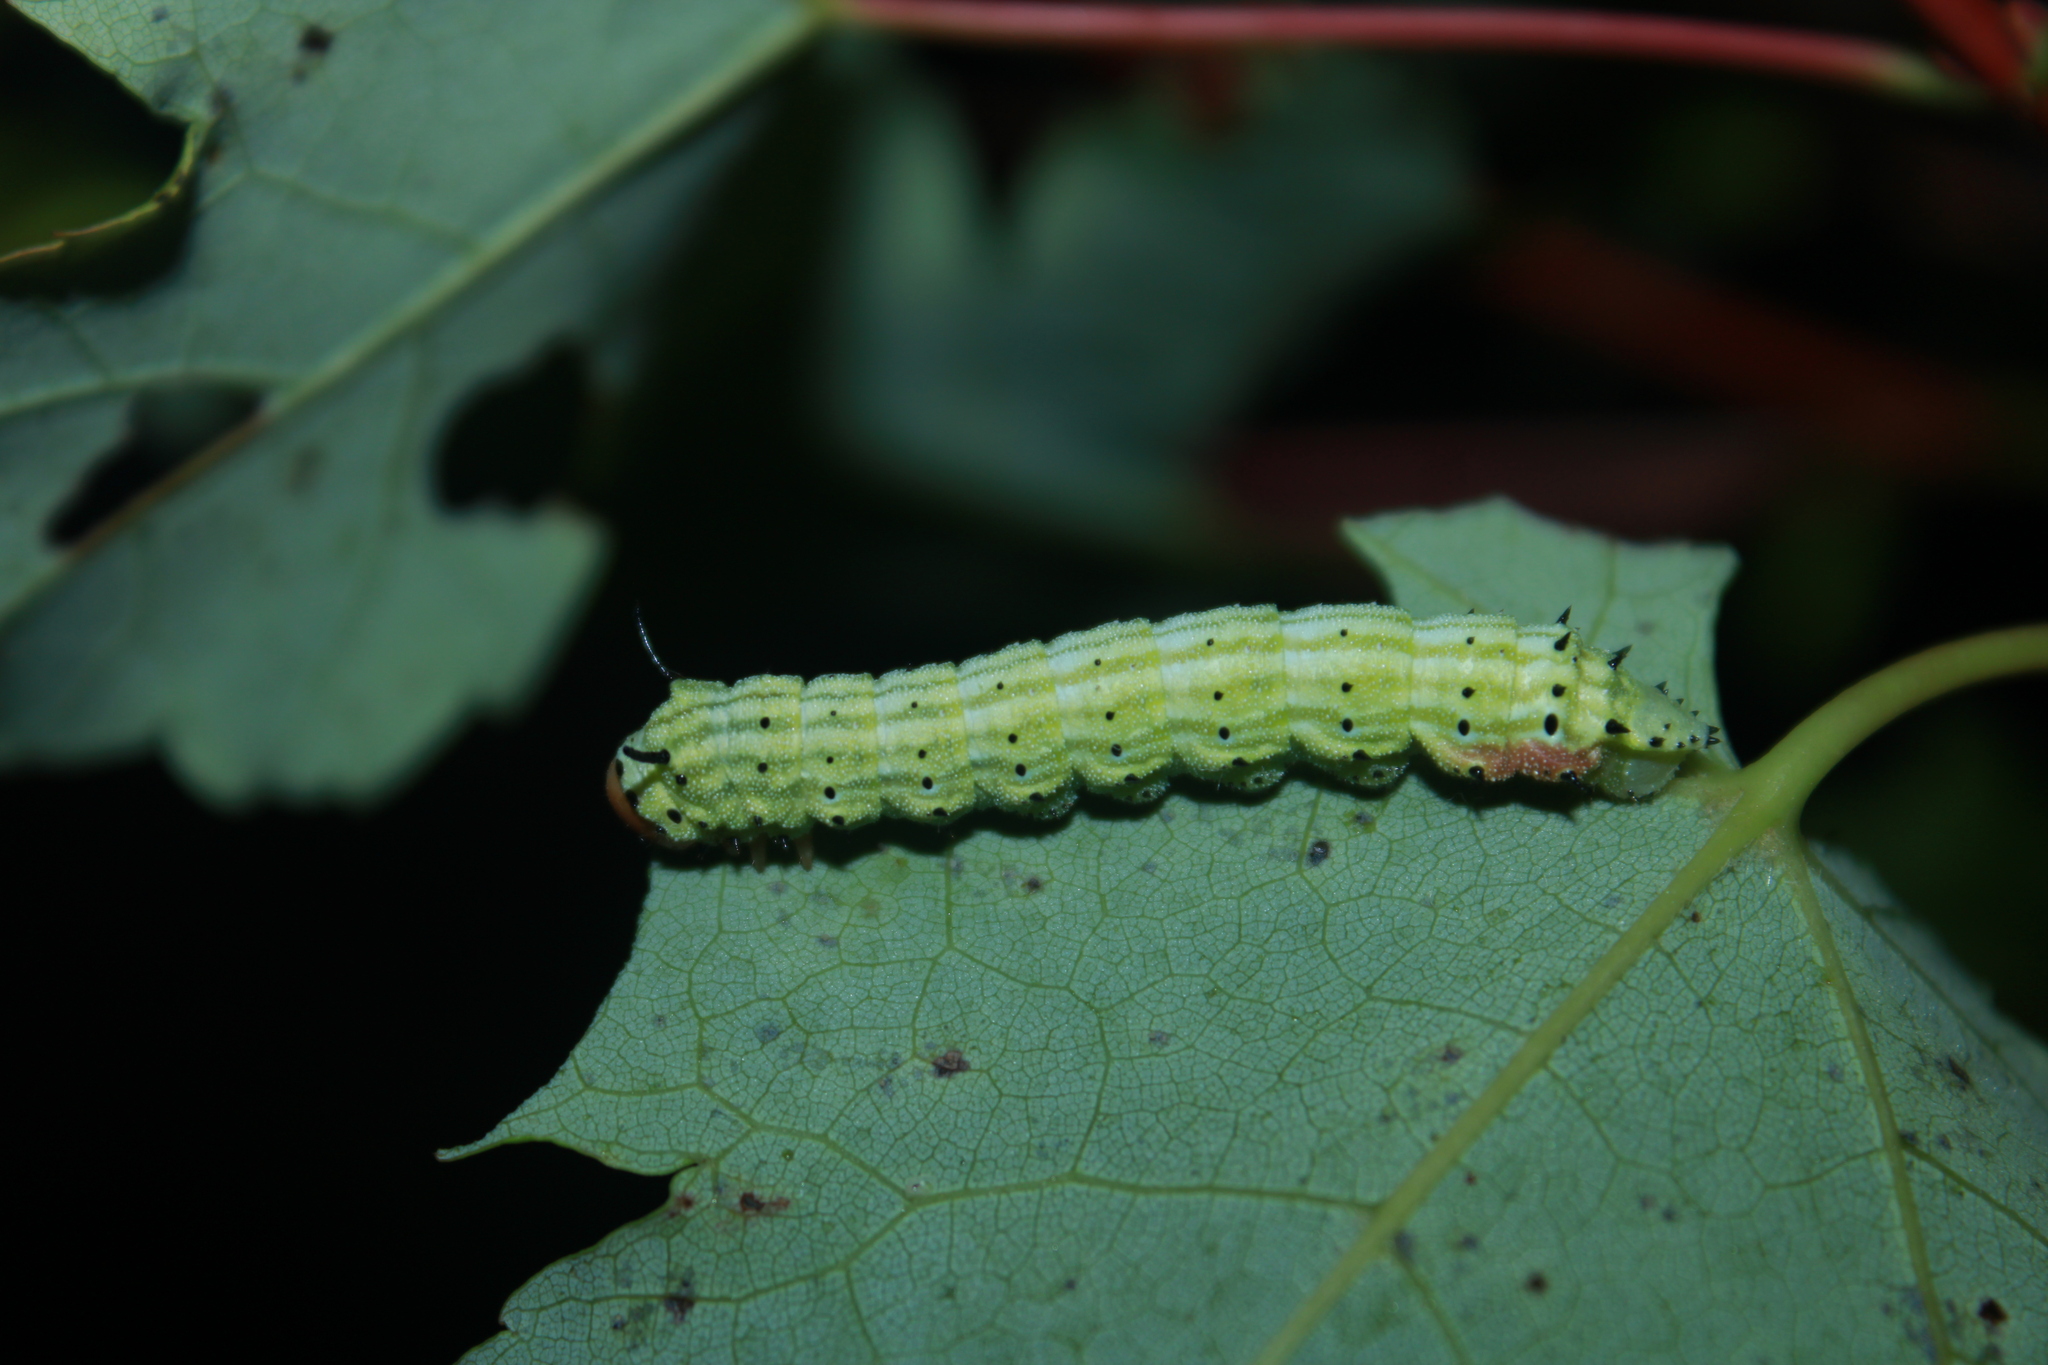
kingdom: Animalia
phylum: Arthropoda
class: Insecta
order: Lepidoptera
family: Saturniidae
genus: Dryocampa
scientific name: Dryocampa rubicunda
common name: Rosy maple moth
